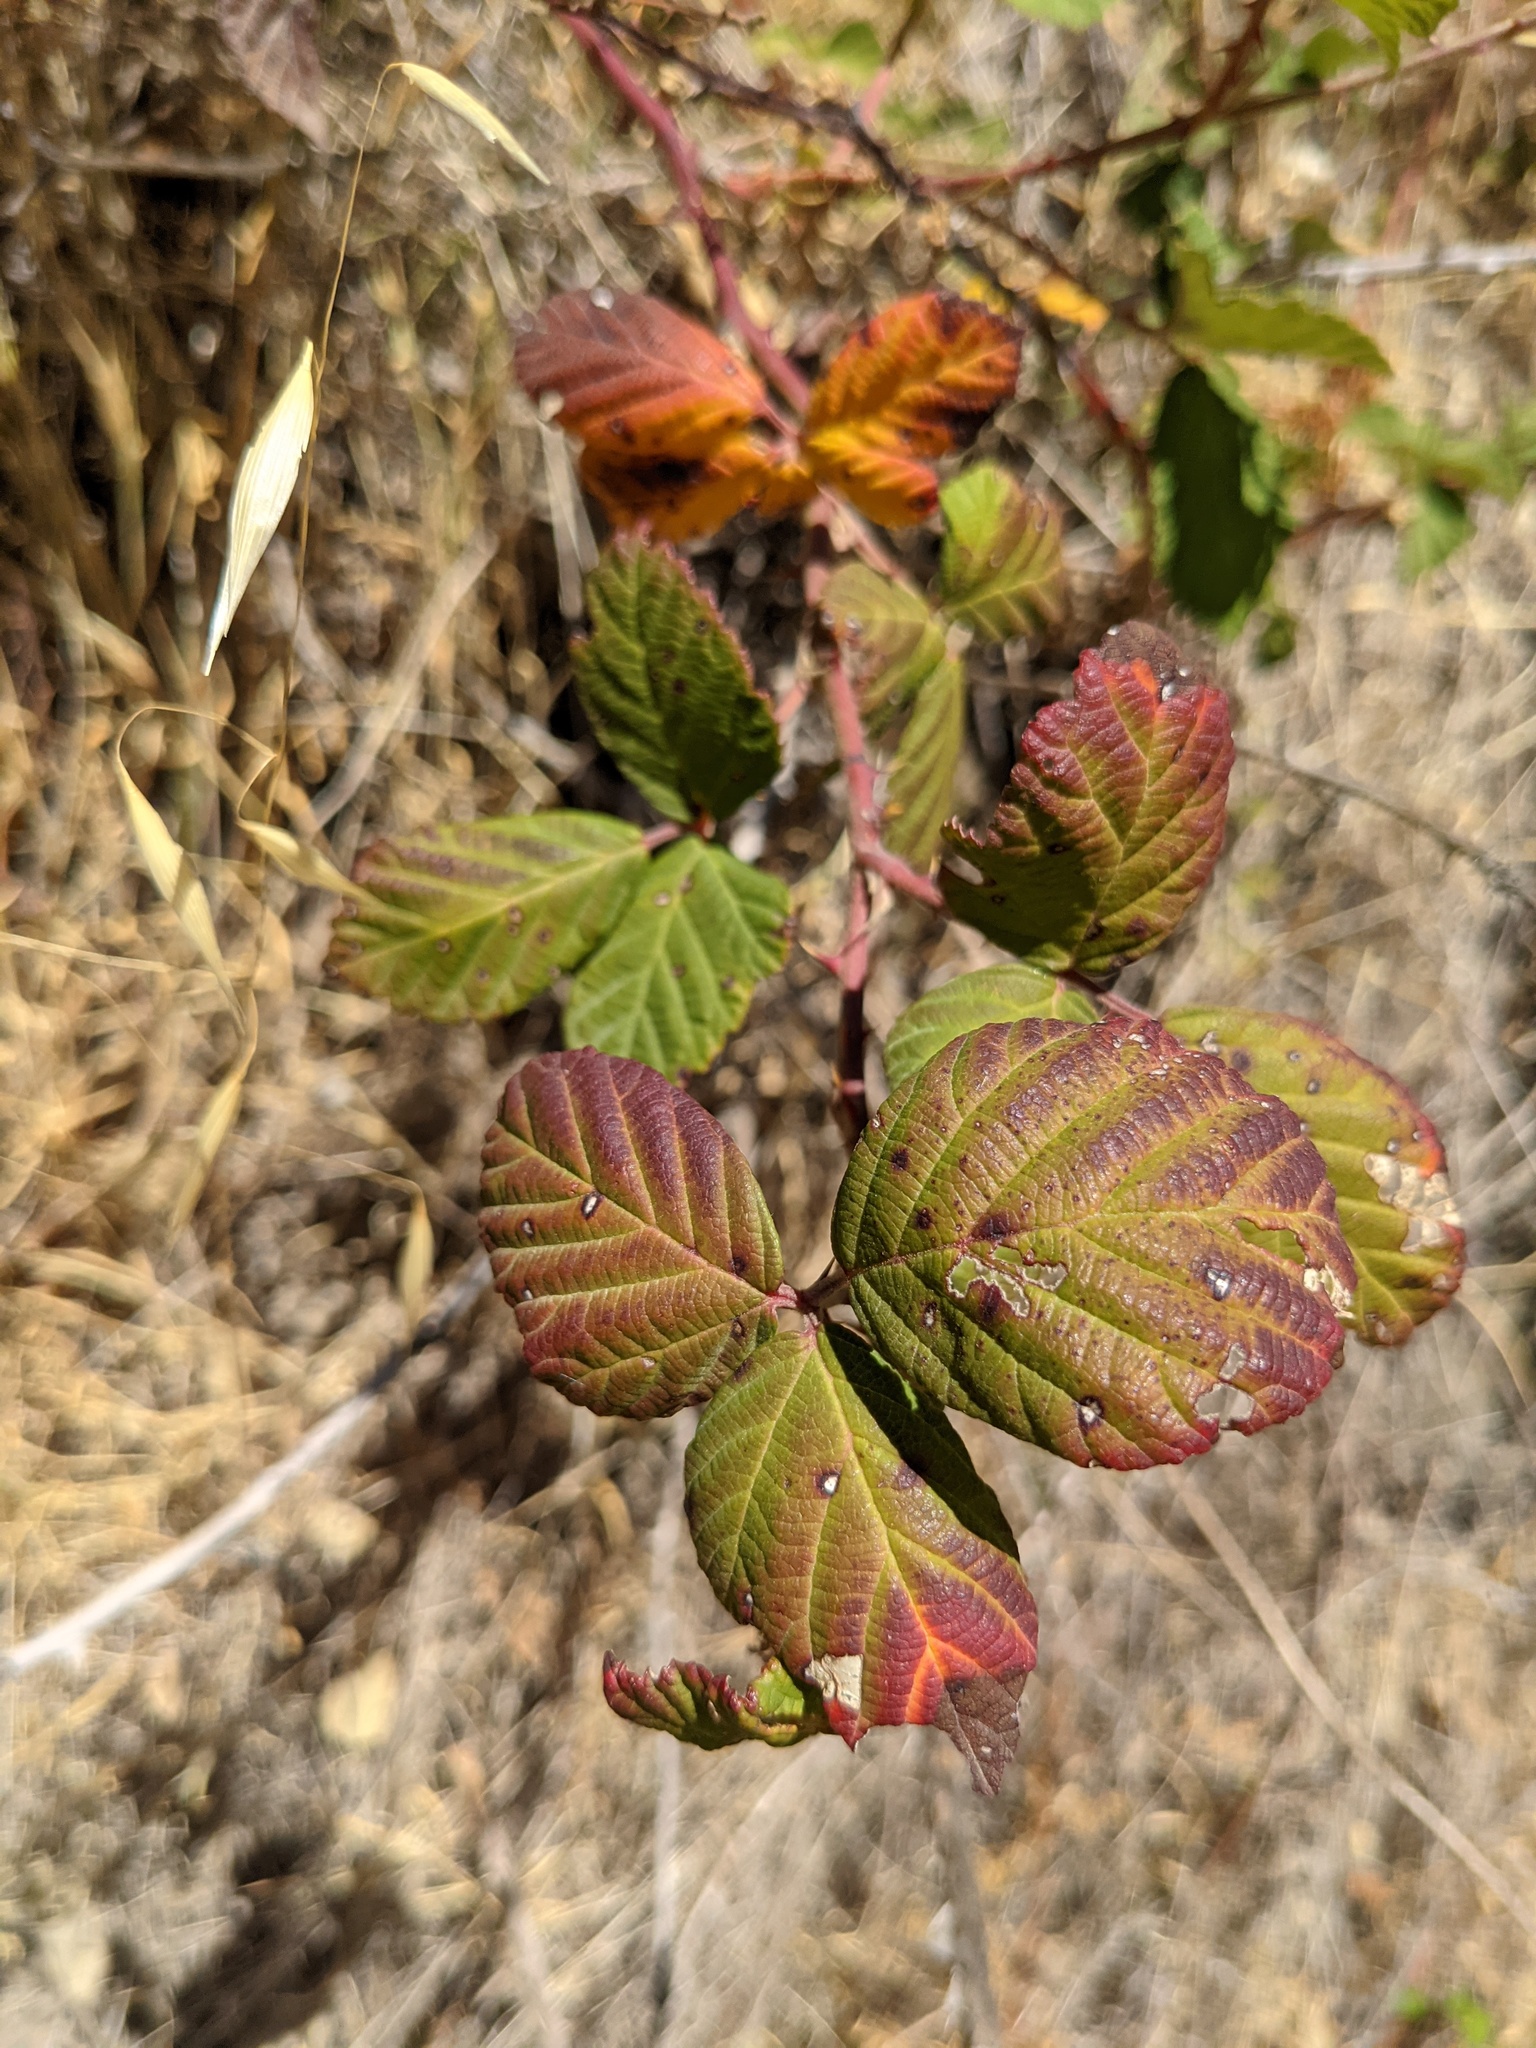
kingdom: Plantae
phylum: Tracheophyta
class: Magnoliopsida
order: Rosales
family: Rosaceae
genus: Rubus
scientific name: Rubus armeniacus
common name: Himalayan blackberry
